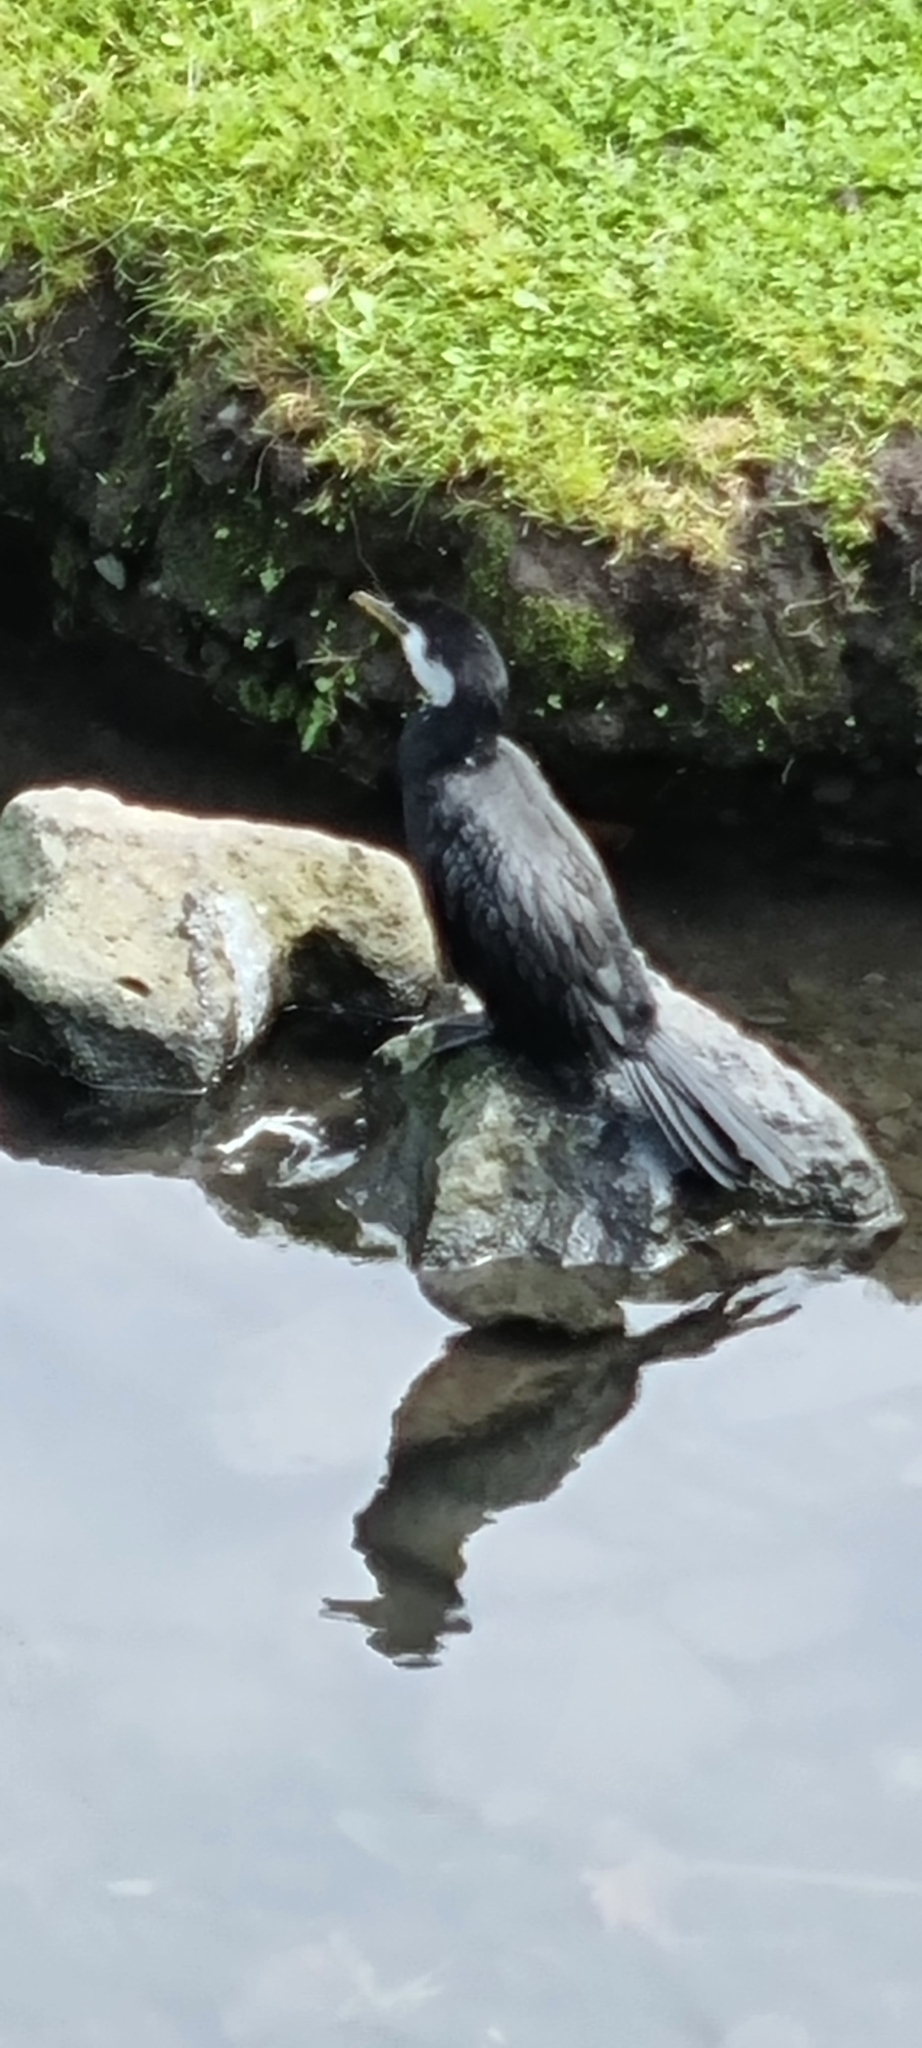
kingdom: Animalia
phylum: Chordata
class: Aves
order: Suliformes
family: Phalacrocoracidae
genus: Microcarbo
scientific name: Microcarbo melanoleucos
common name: Little pied cormorant
